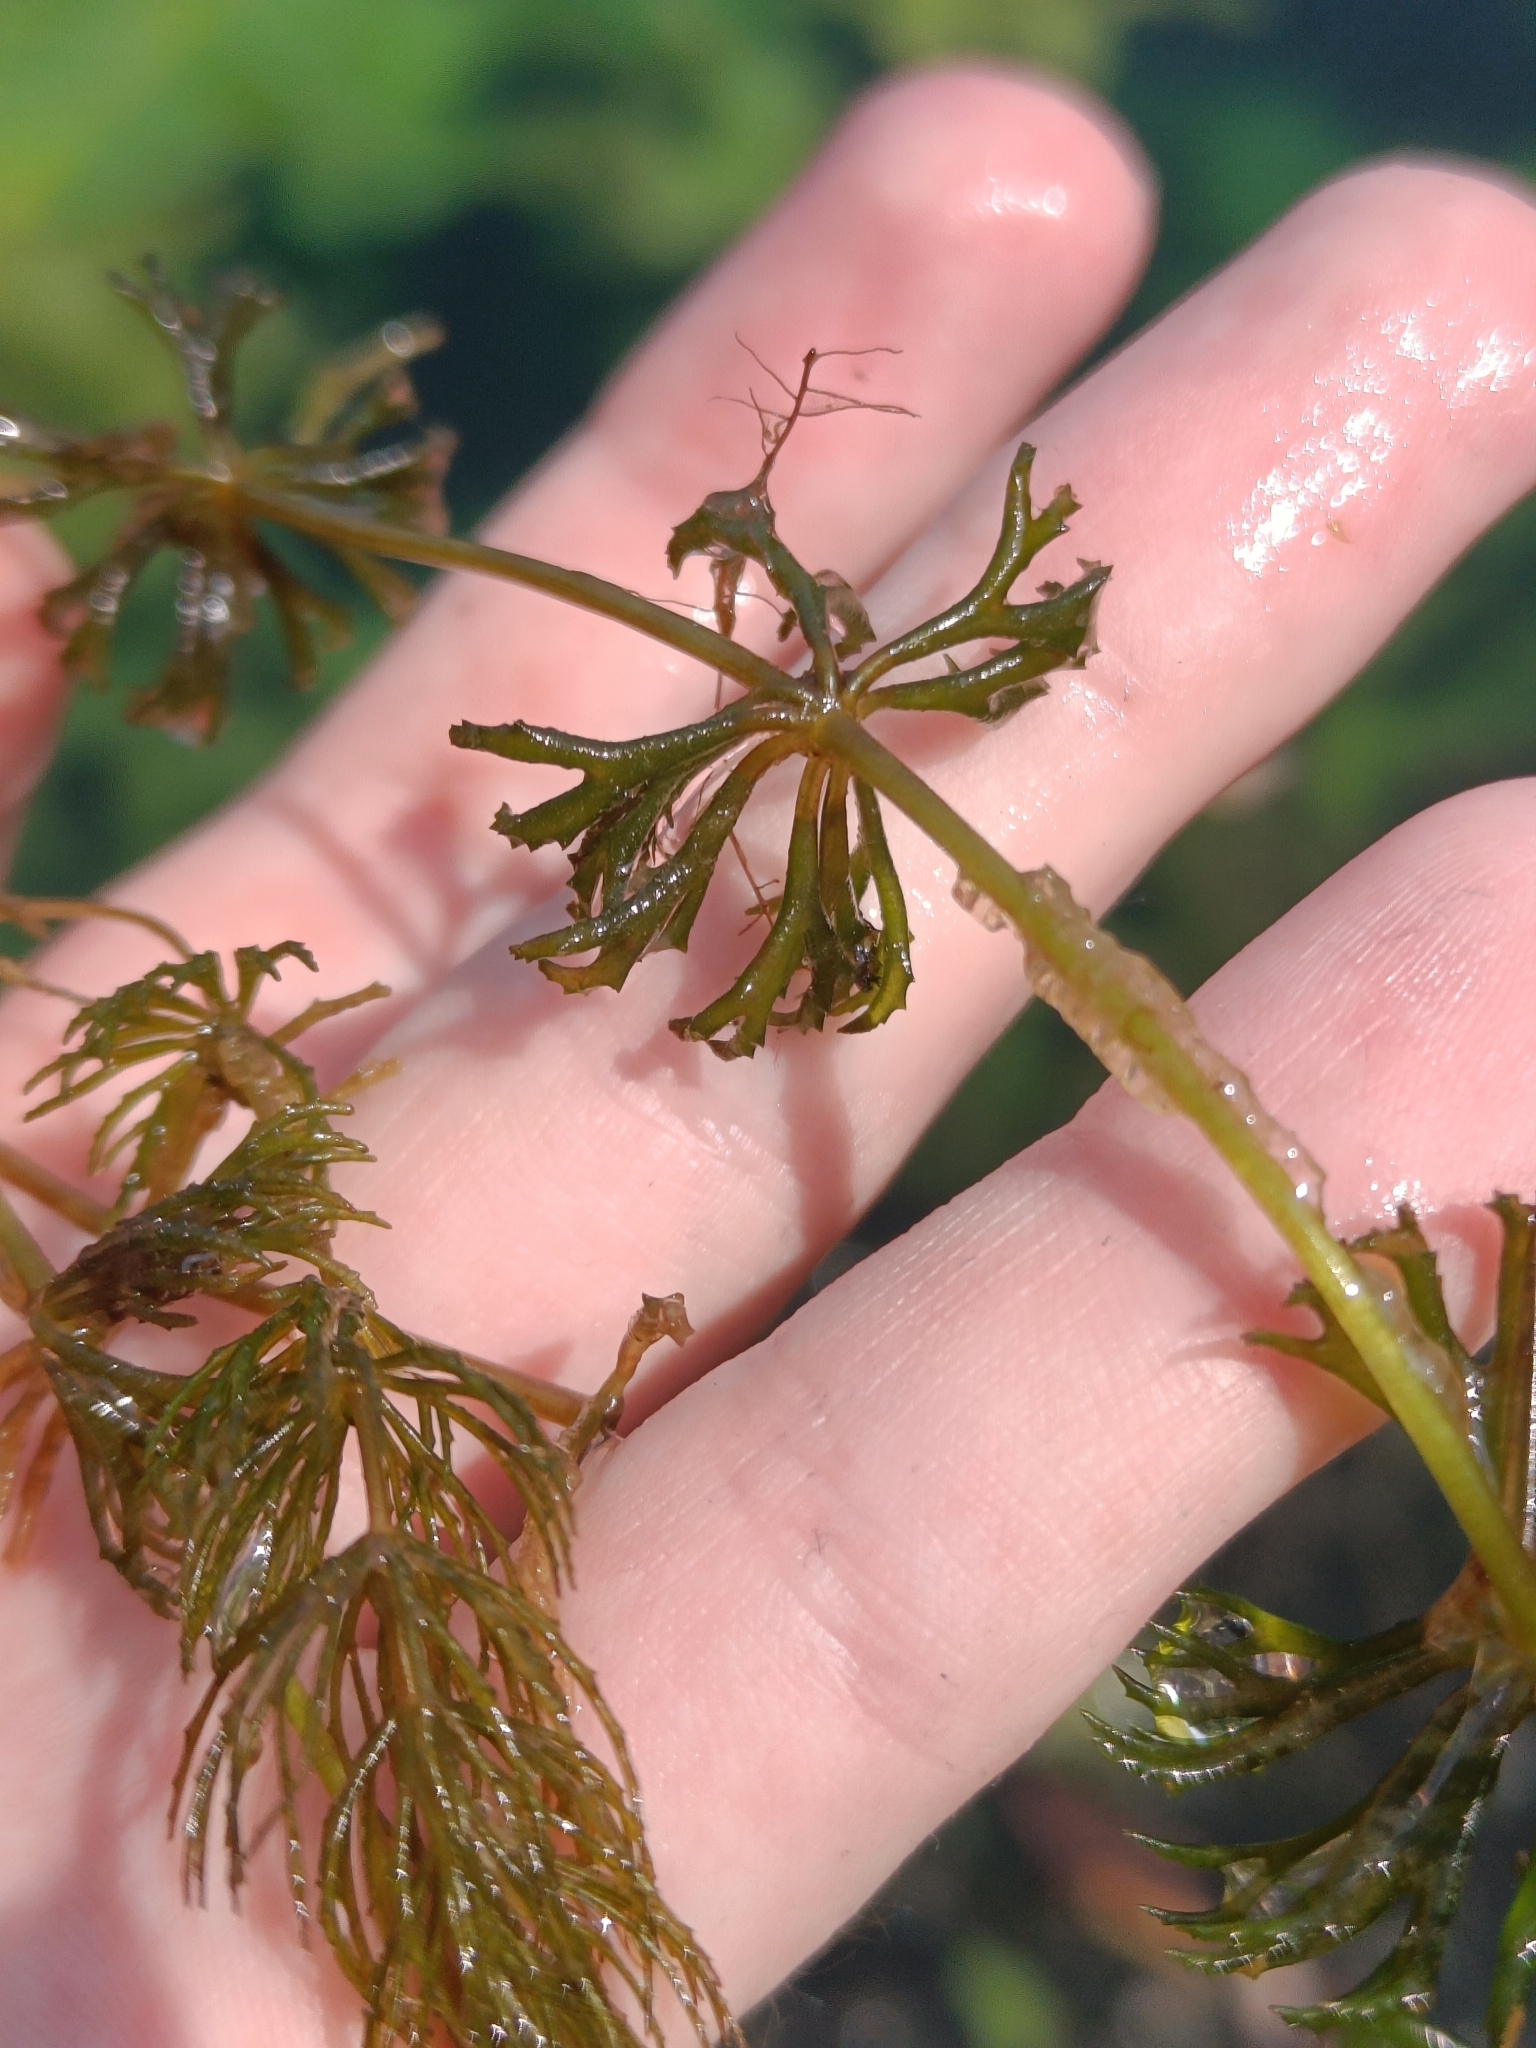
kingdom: Plantae
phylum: Tracheophyta
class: Magnoliopsida
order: Ceratophyllales
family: Ceratophyllaceae
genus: Ceratophyllum
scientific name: Ceratophyllum demersum
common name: Rigid hornwort
